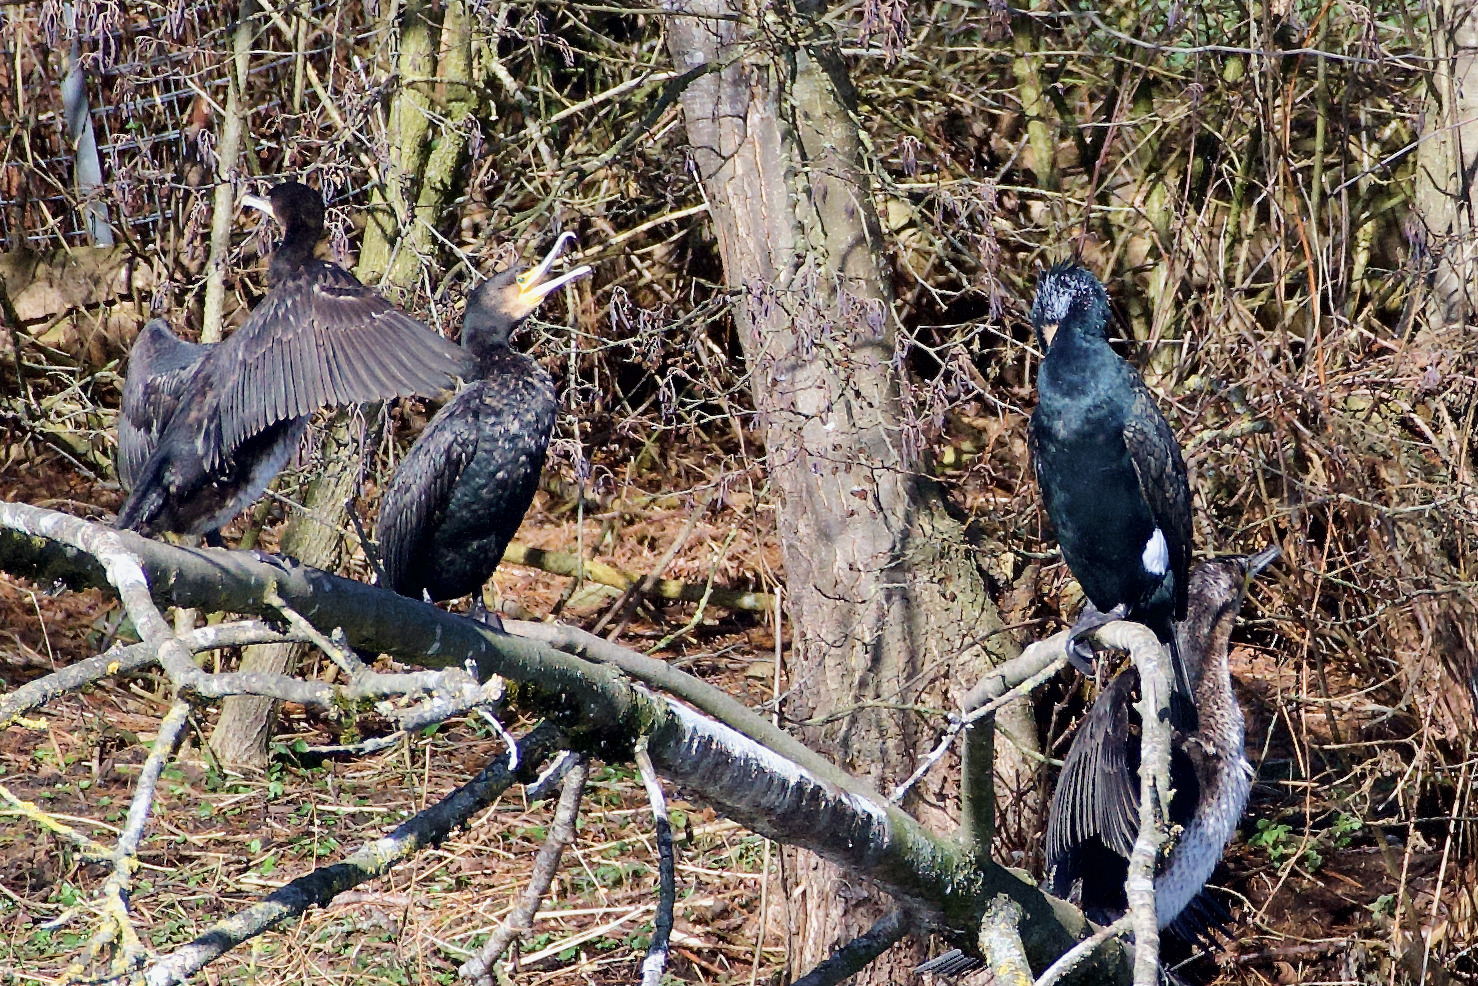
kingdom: Animalia
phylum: Chordata
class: Aves
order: Suliformes
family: Phalacrocoracidae
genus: Phalacrocorax
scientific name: Phalacrocorax carbo
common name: Great cormorant
